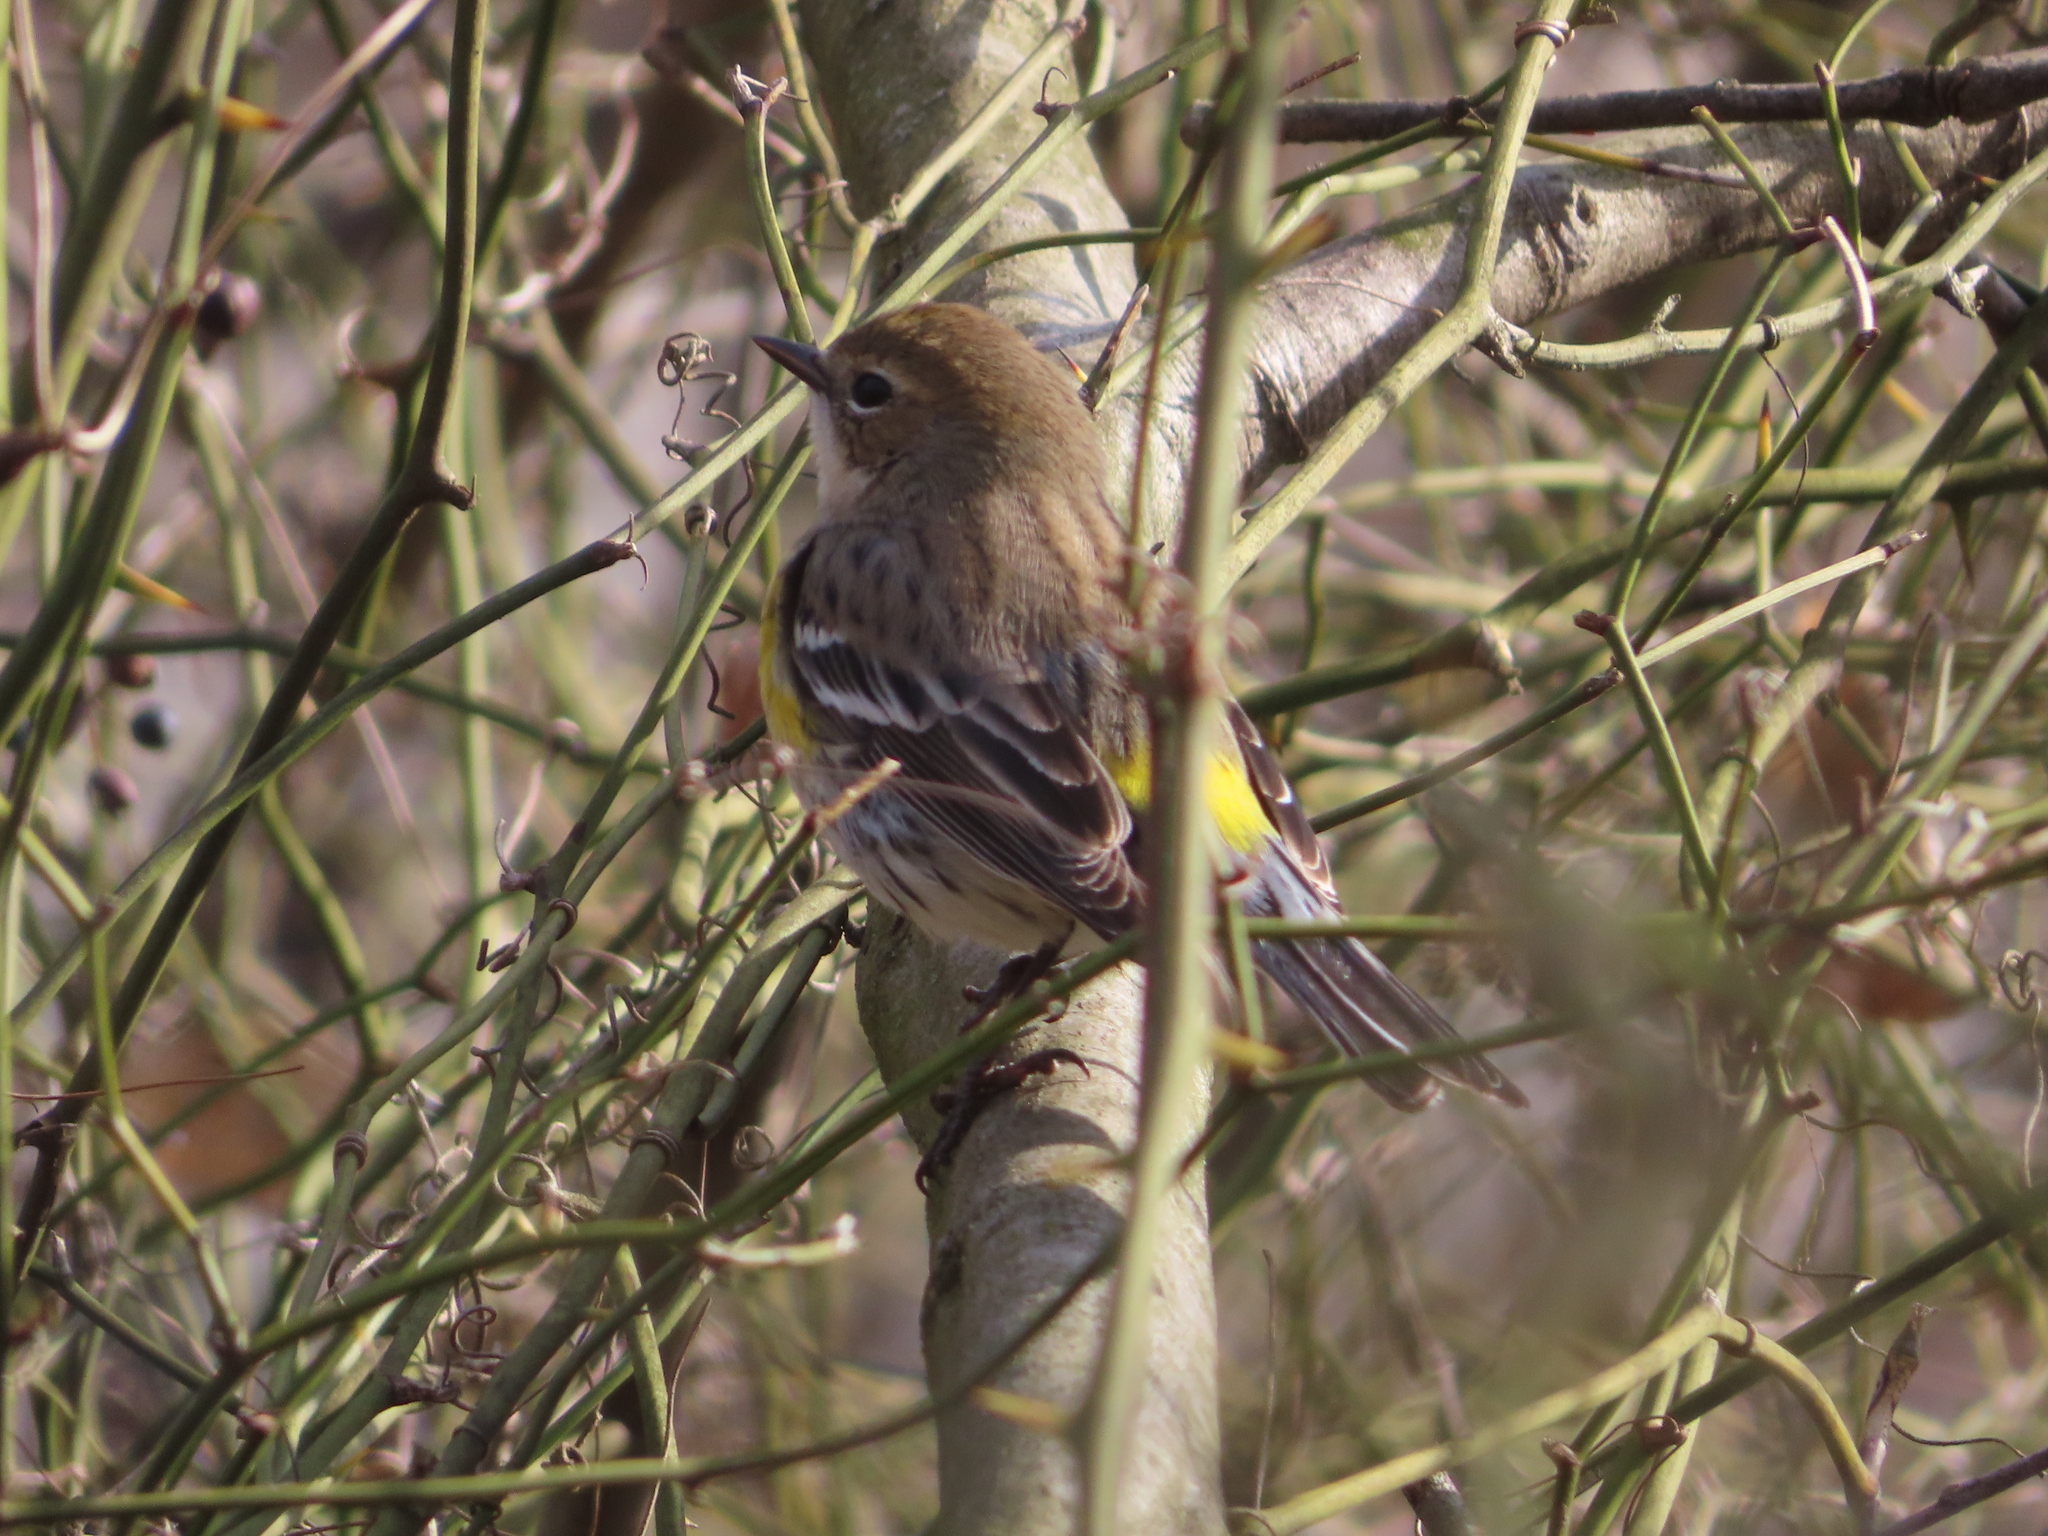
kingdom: Animalia
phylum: Chordata
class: Aves
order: Passeriformes
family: Parulidae
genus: Setophaga
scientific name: Setophaga coronata
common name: Myrtle warbler
